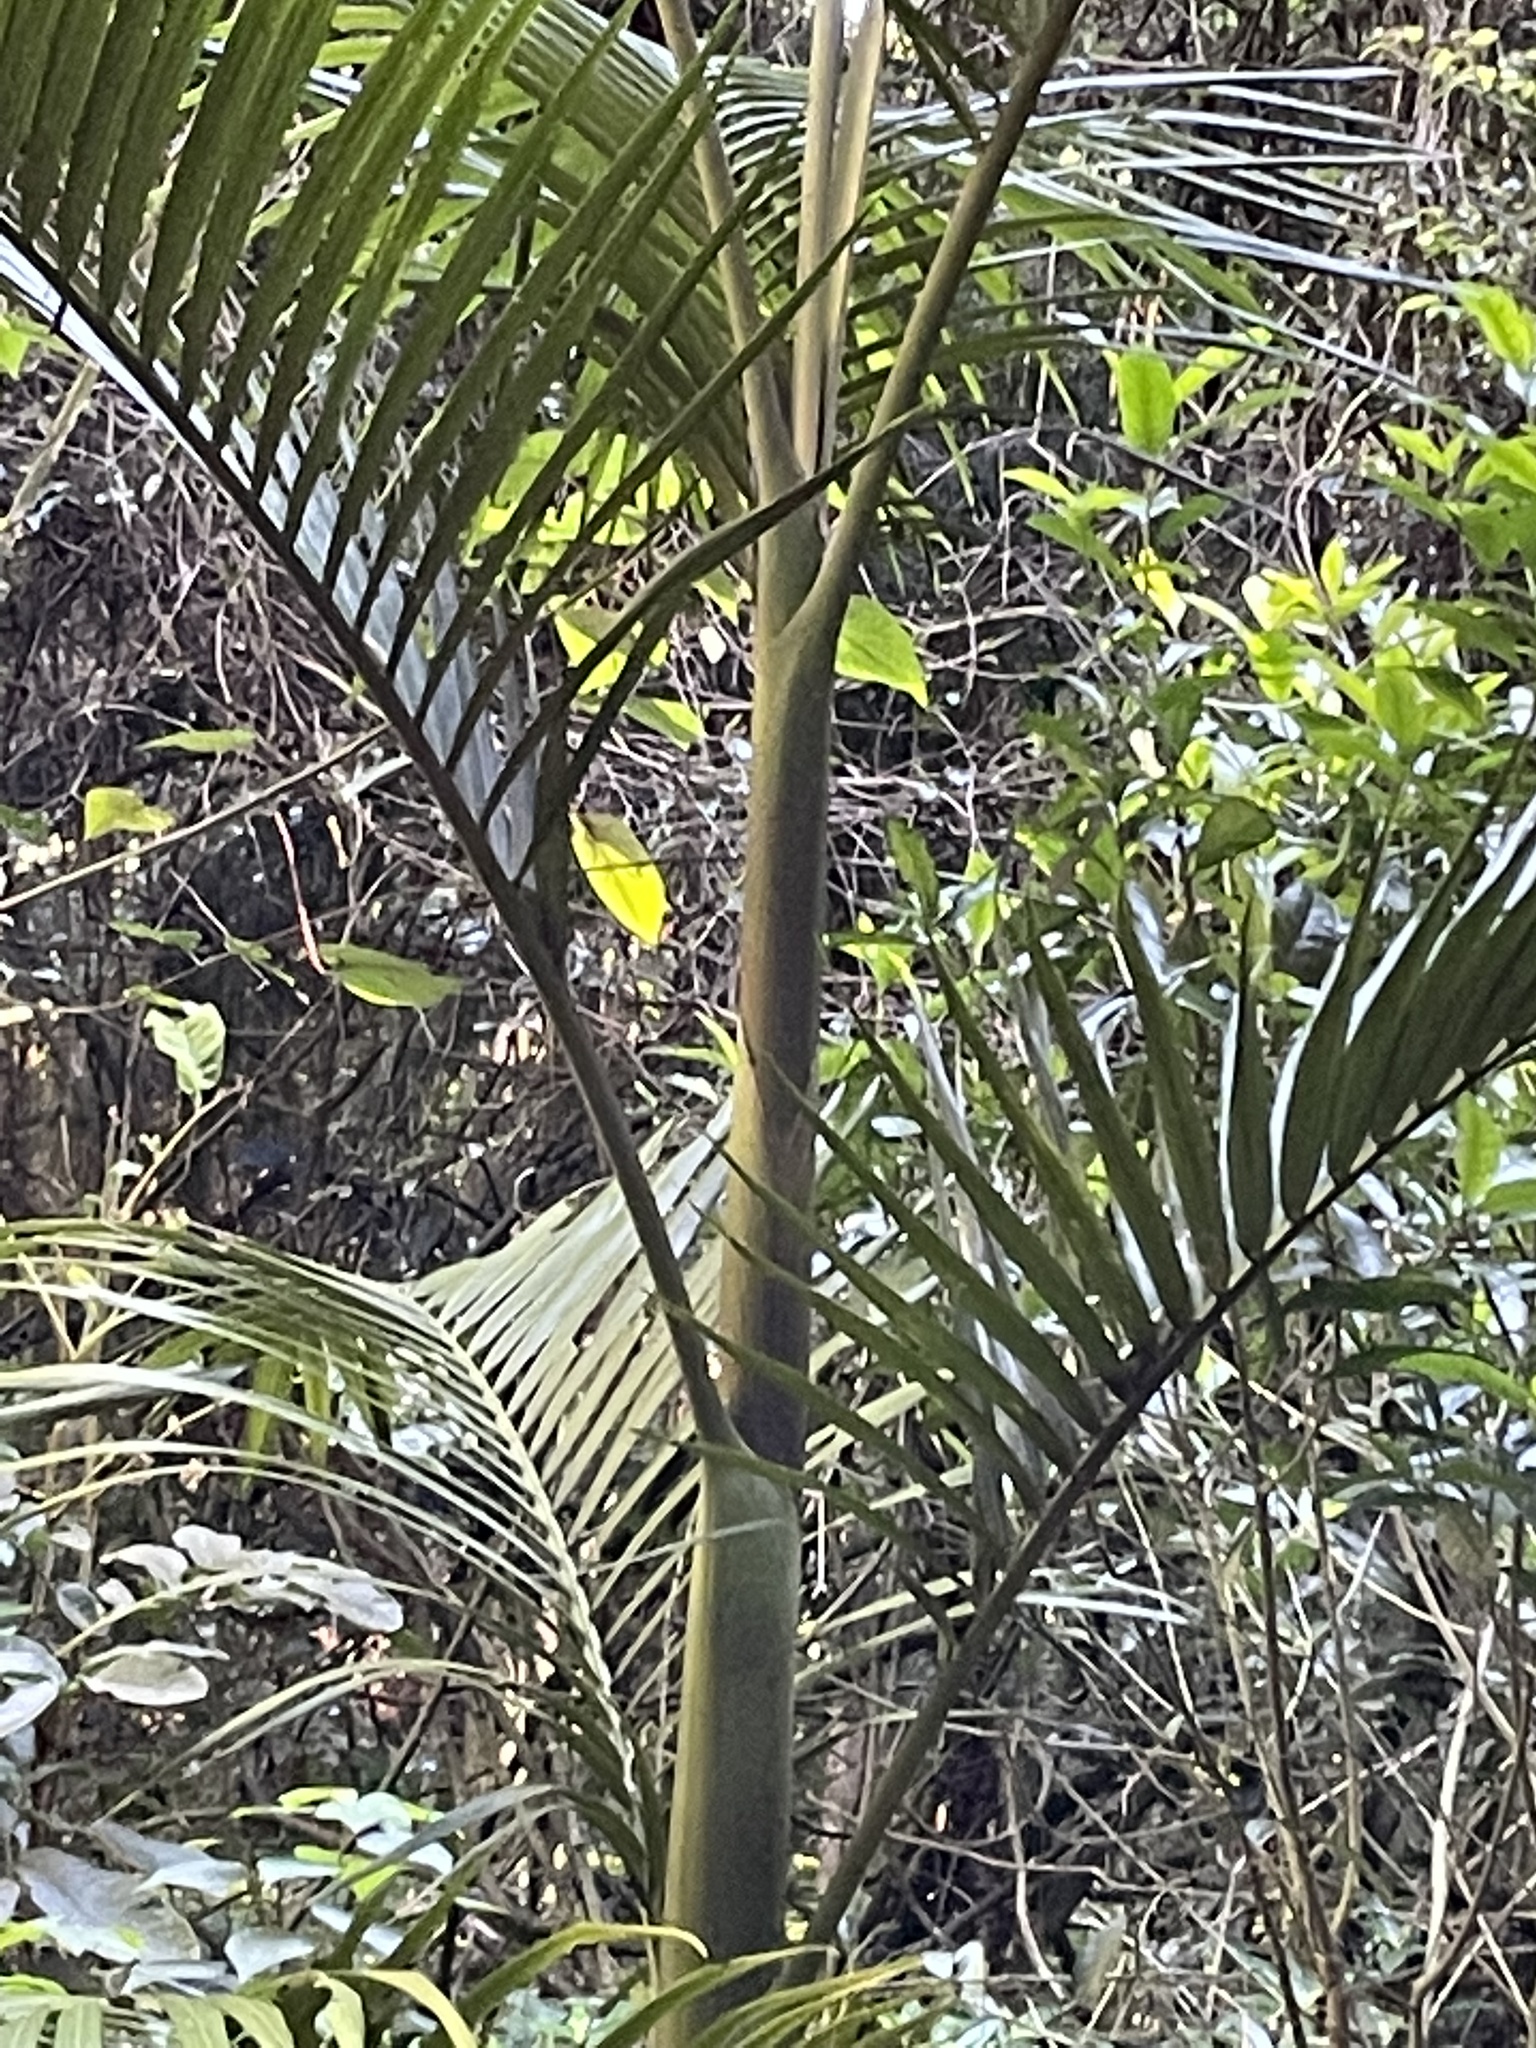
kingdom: Plantae
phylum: Tracheophyta
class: Liliopsida
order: Arecales
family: Arecaceae
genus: Archontophoenix
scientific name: Archontophoenix cunninghamiana
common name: Piccabeen bangalow palm
